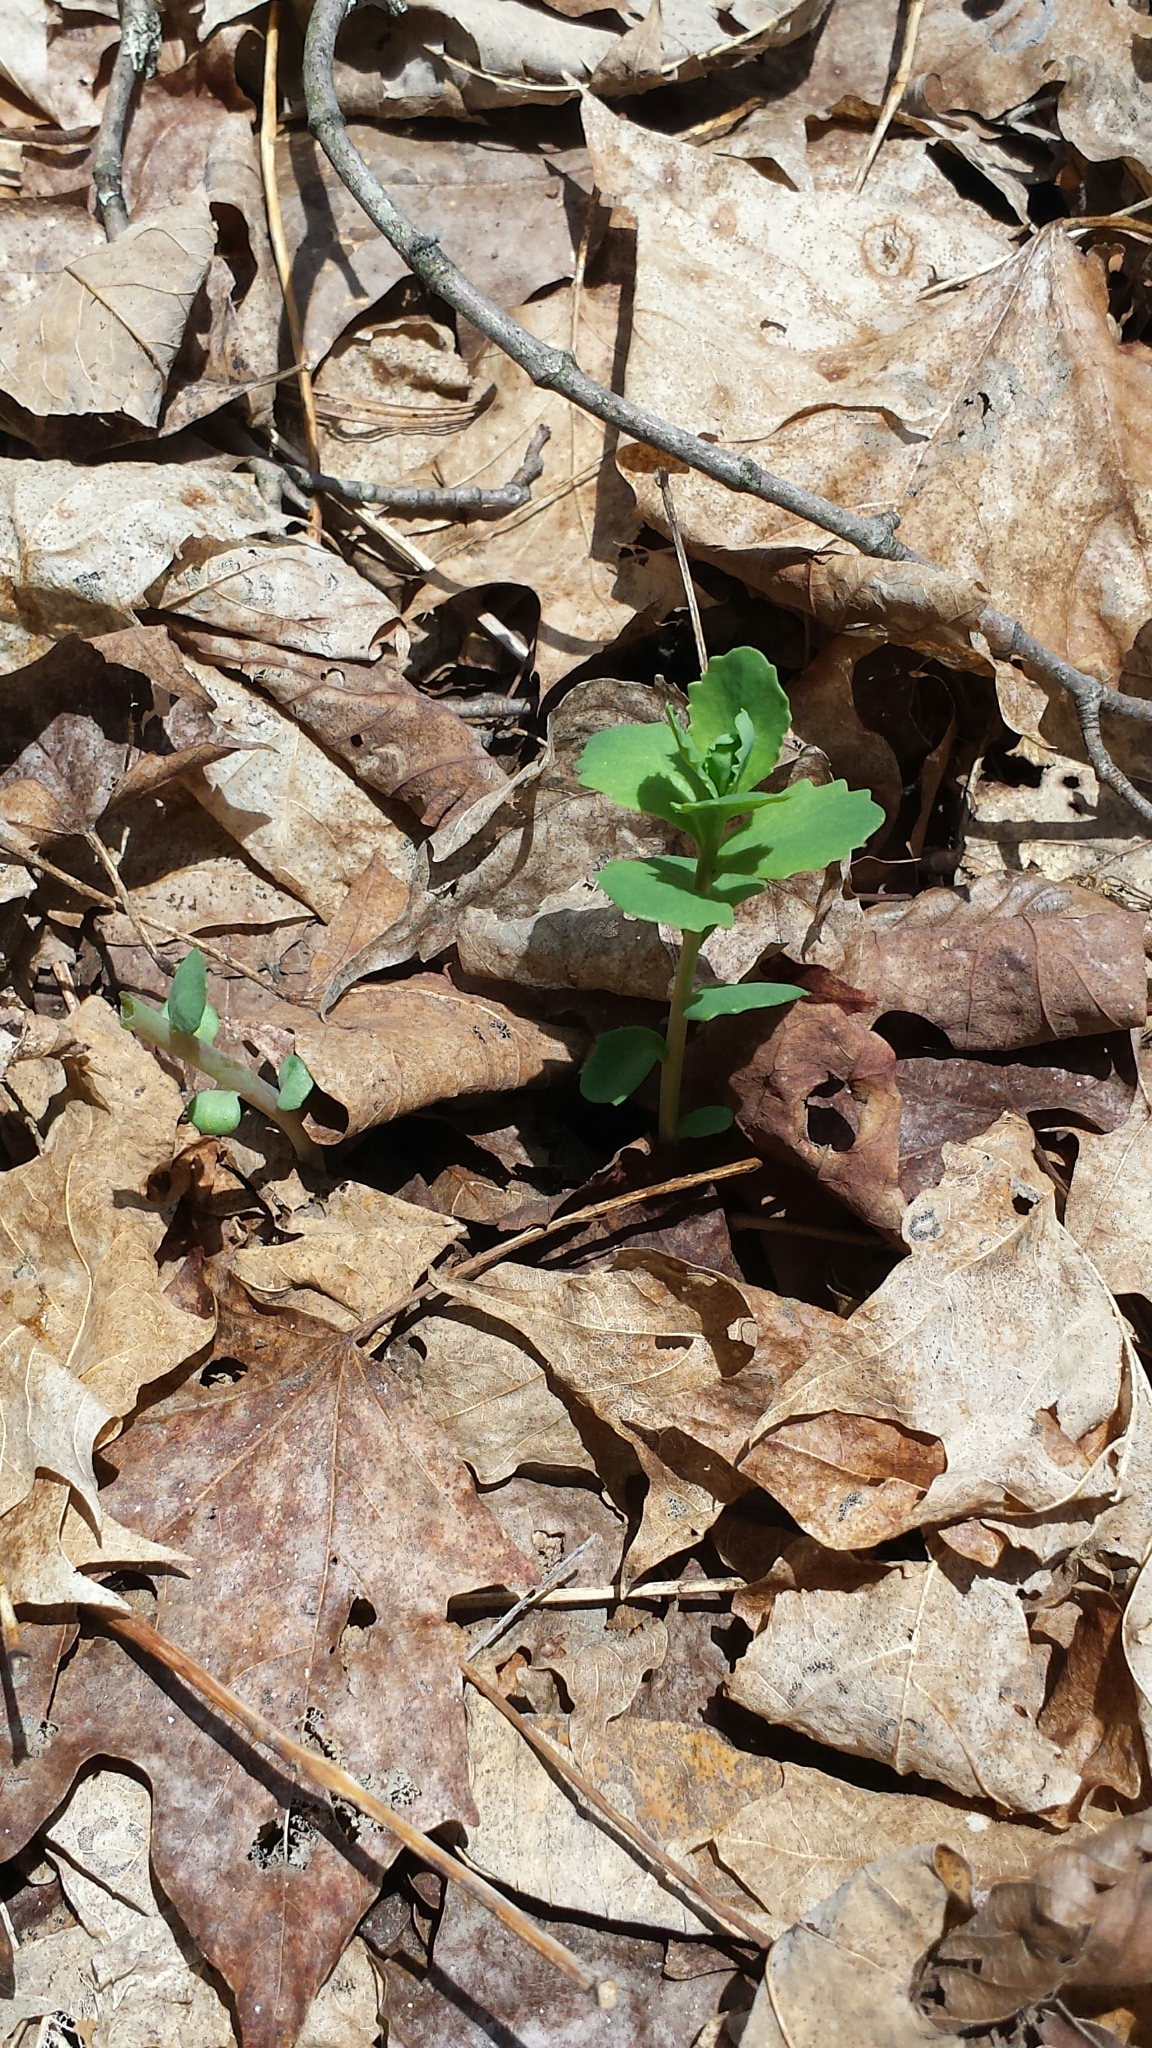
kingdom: Plantae
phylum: Tracheophyta
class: Magnoliopsida
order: Saxifragales
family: Crassulaceae
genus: Hylotelephium
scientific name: Hylotelephium telephium
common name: Live-forever
